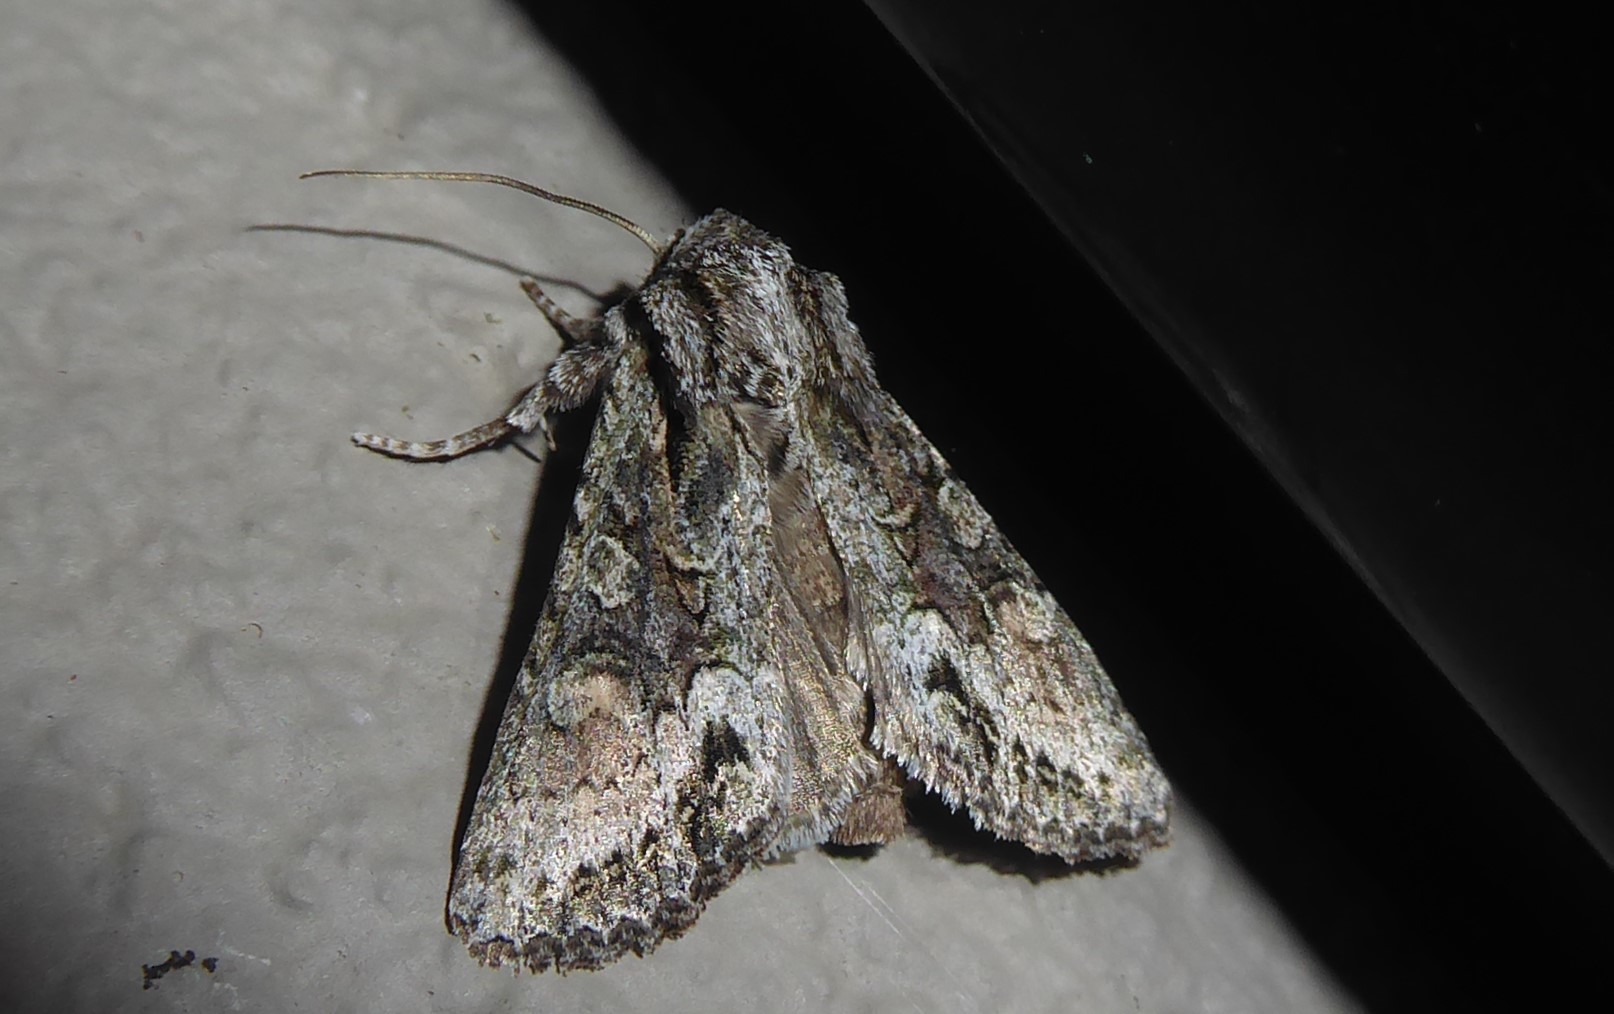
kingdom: Animalia
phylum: Arthropoda
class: Insecta
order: Lepidoptera
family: Noctuidae
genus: Ichneutica
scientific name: Ichneutica mutans
